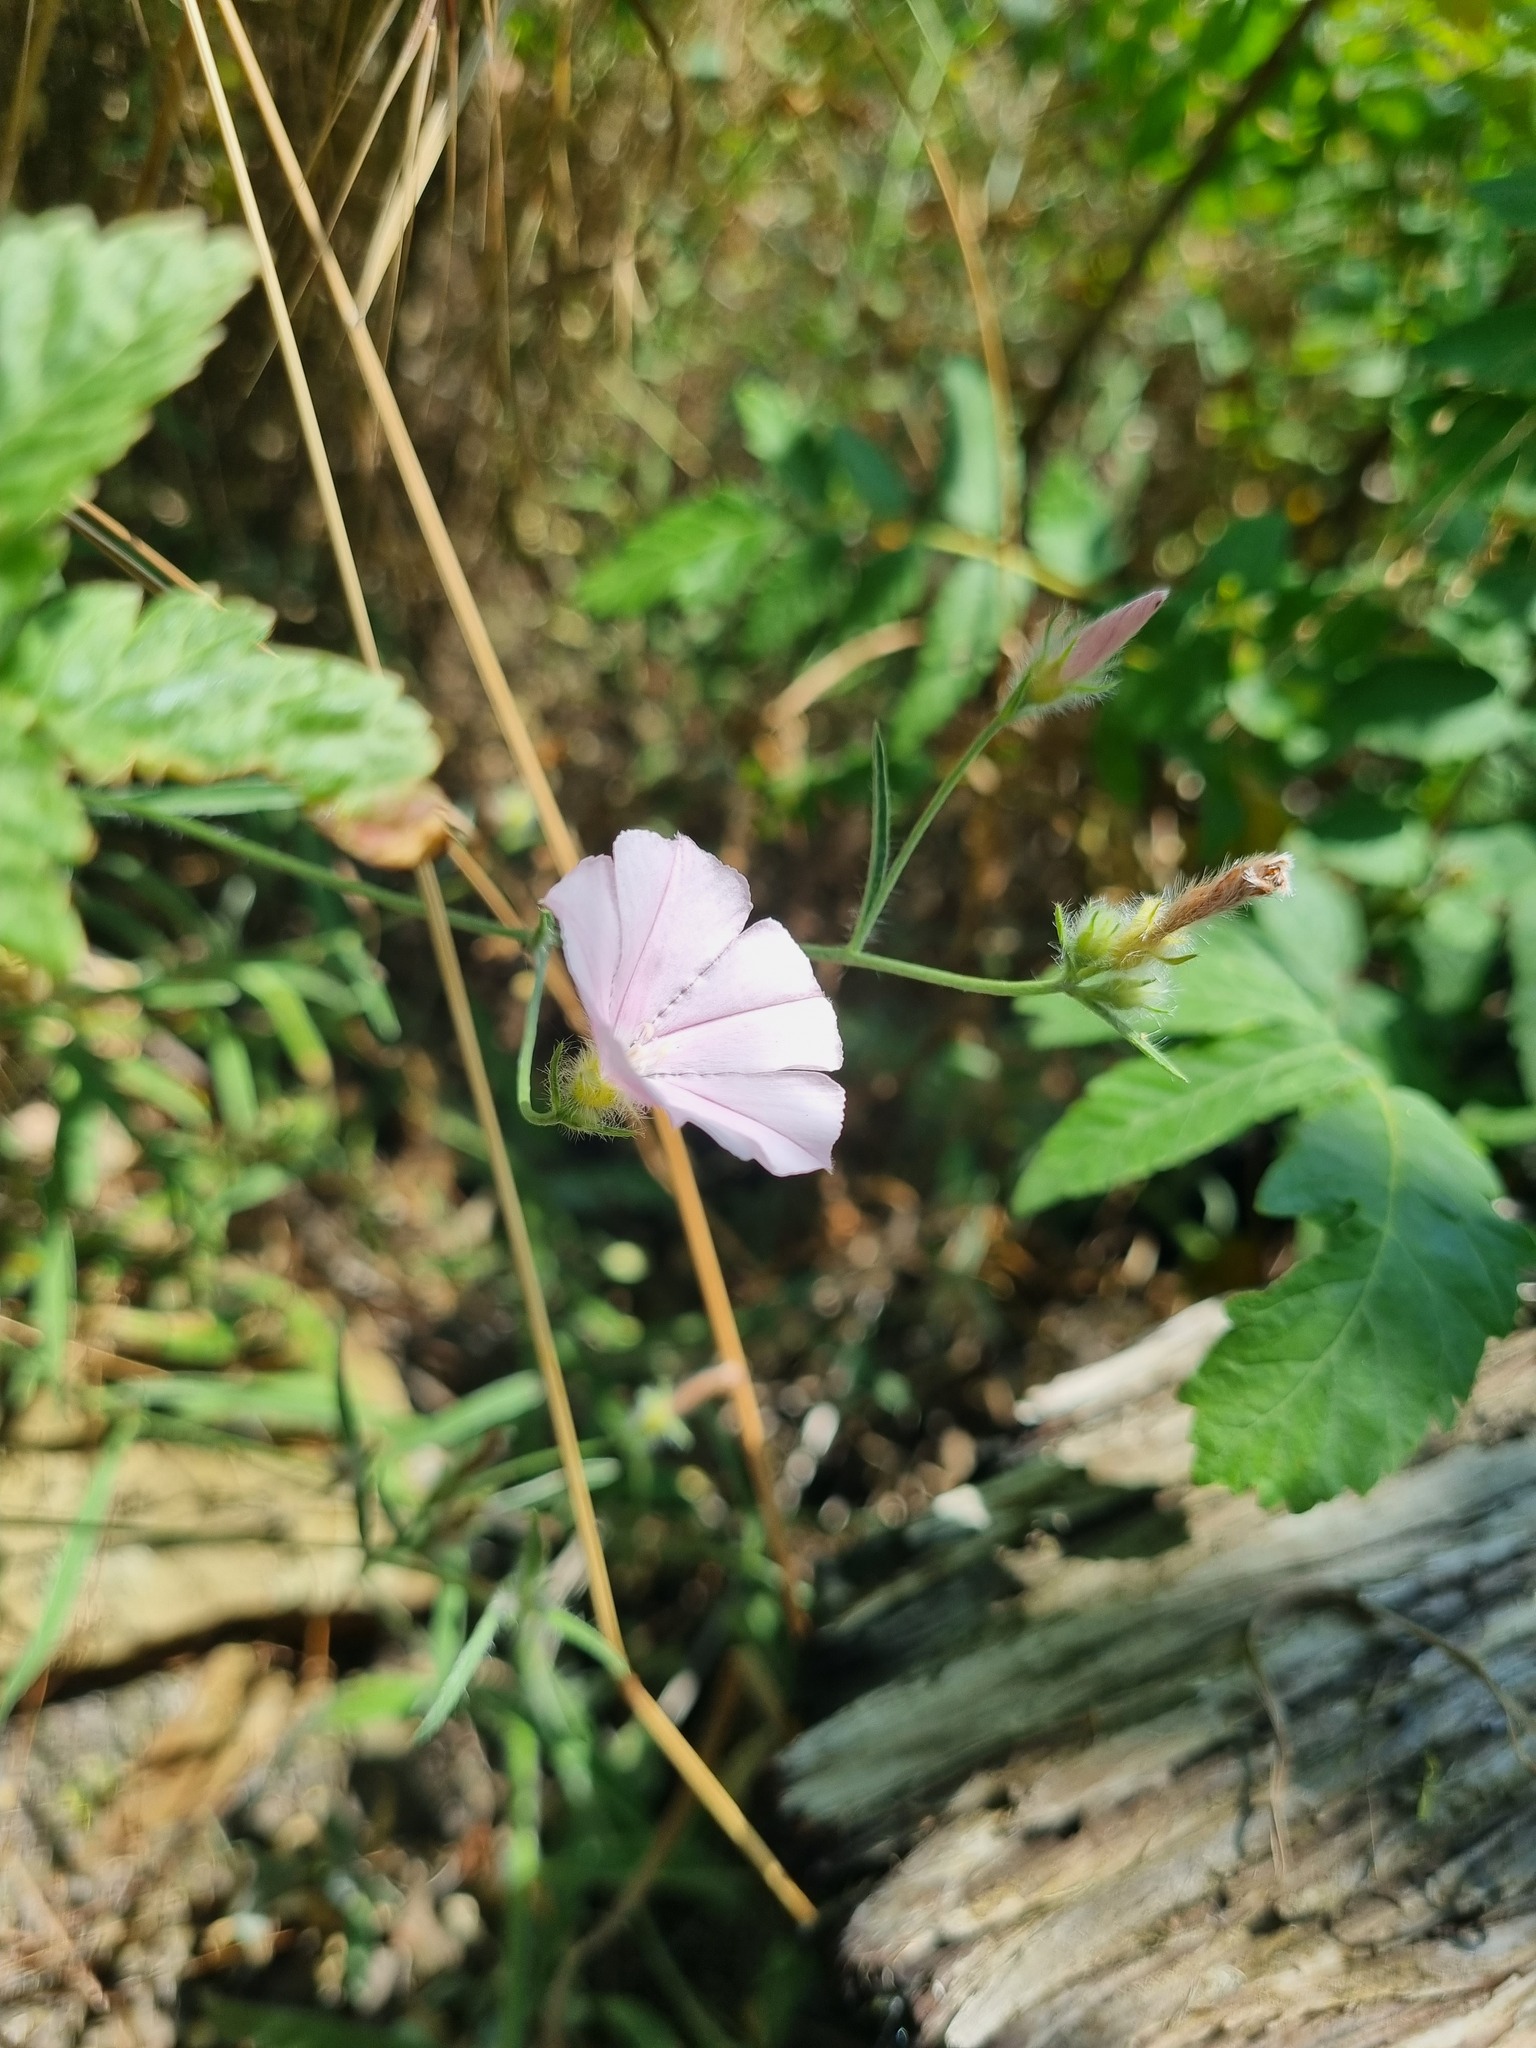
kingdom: Plantae
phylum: Tracheophyta
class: Magnoliopsida
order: Solanales
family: Convolvulaceae
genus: Convolvulus
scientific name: Convolvulus cantabrica
